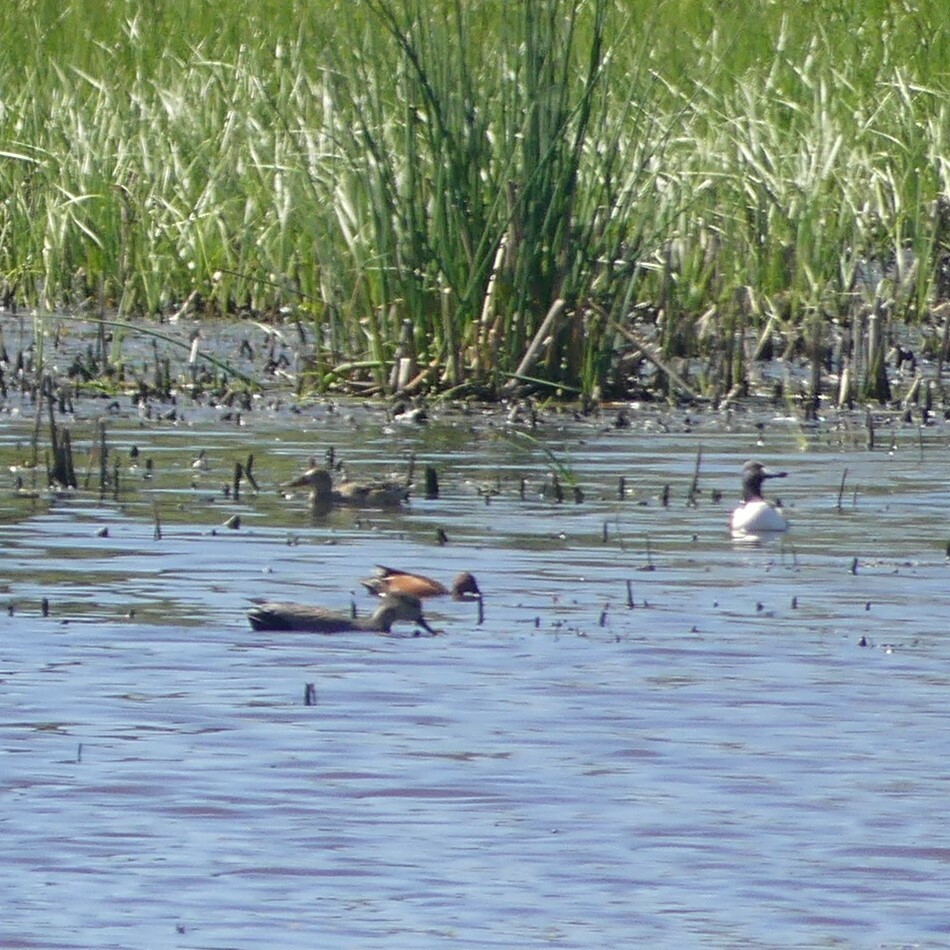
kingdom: Animalia
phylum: Chordata
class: Aves
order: Anseriformes
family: Anatidae
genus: Mareca
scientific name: Mareca strepera
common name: Gadwall
